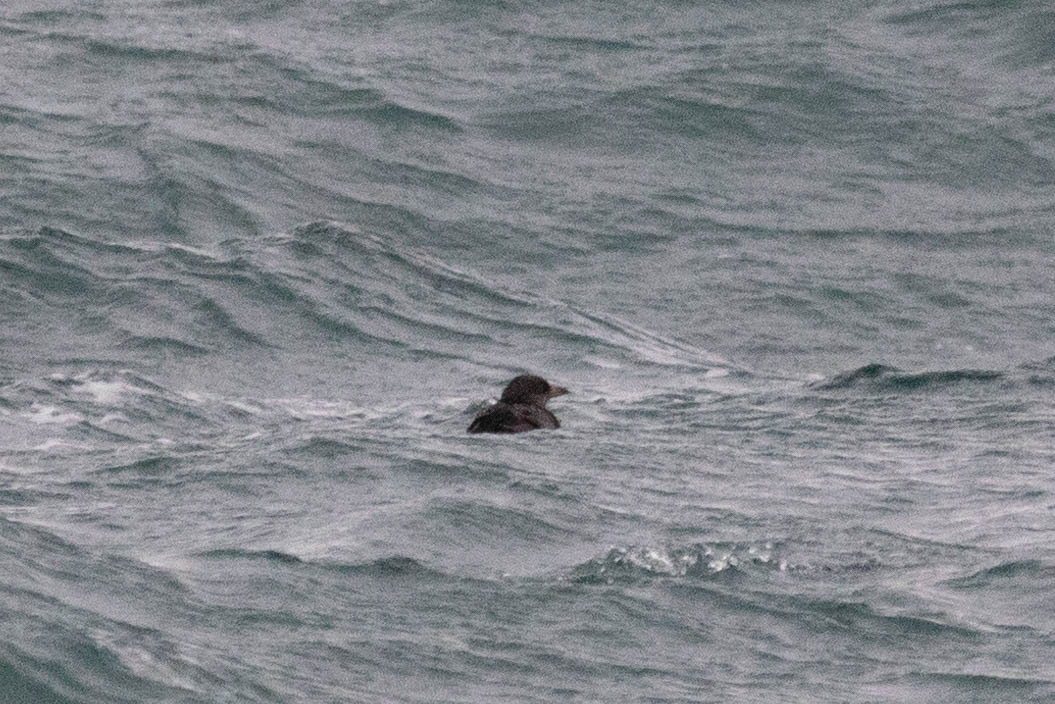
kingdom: Animalia
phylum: Chordata
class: Aves
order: Charadriiformes
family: Alcidae
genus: Cerorhinca
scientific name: Cerorhinca monocerata
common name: Rhinoceros auklet
